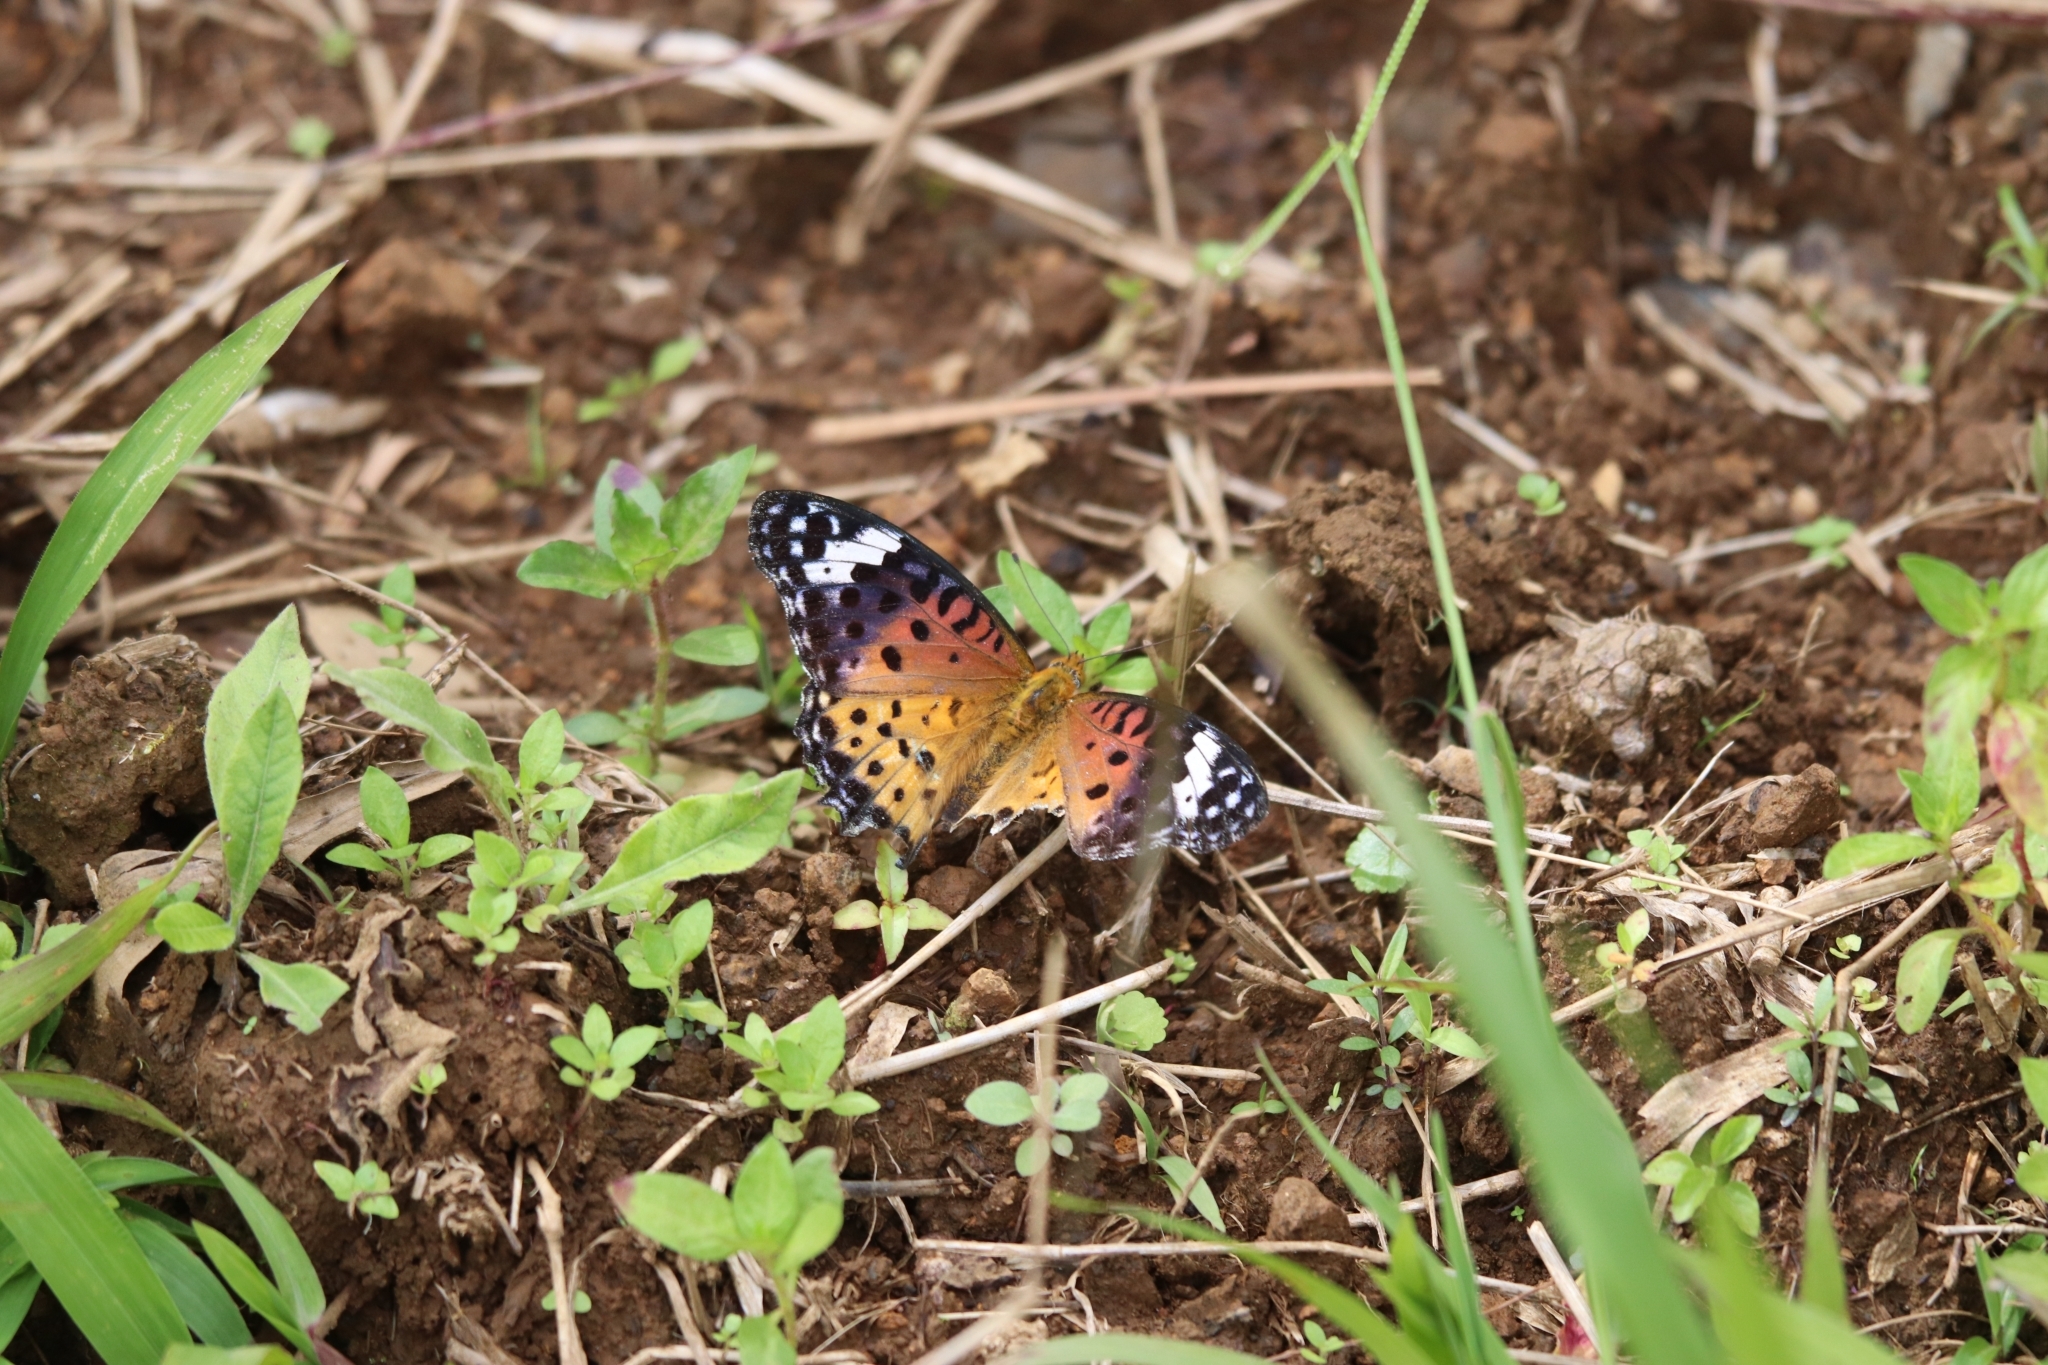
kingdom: Animalia
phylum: Arthropoda
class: Insecta
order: Lepidoptera
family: Nymphalidae
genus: Argynnis
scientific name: Argynnis hyperbius
